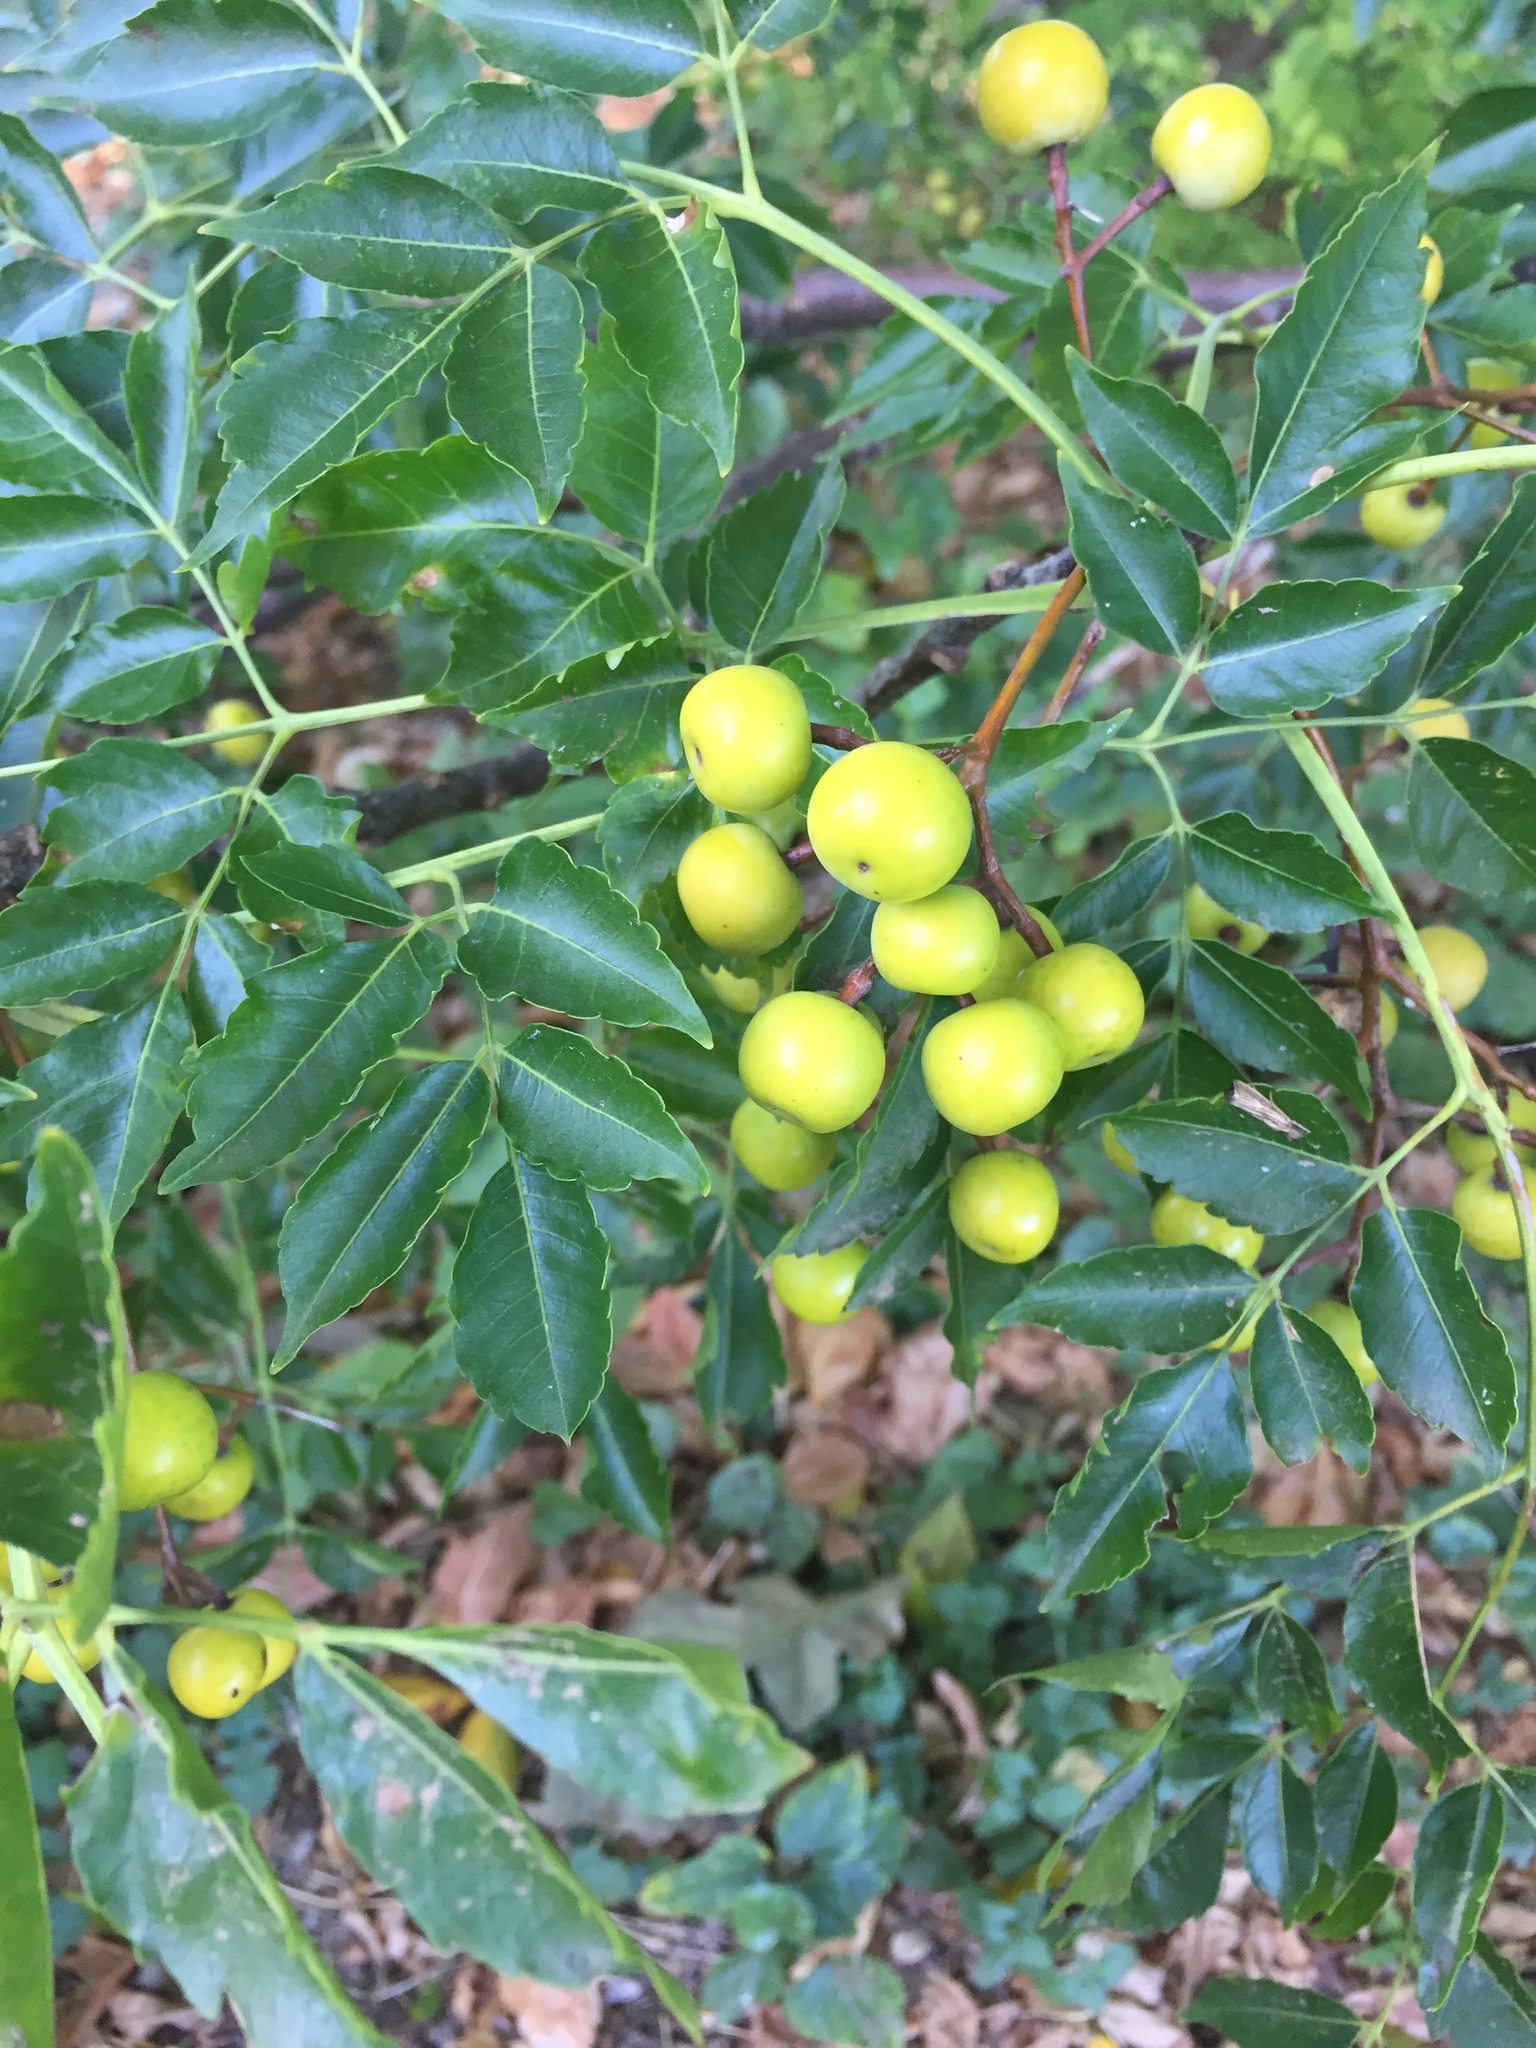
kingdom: Plantae
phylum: Tracheophyta
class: Magnoliopsida
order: Sapindales
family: Meliaceae
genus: Melia
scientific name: Melia azedarach
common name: Chinaberrytree
